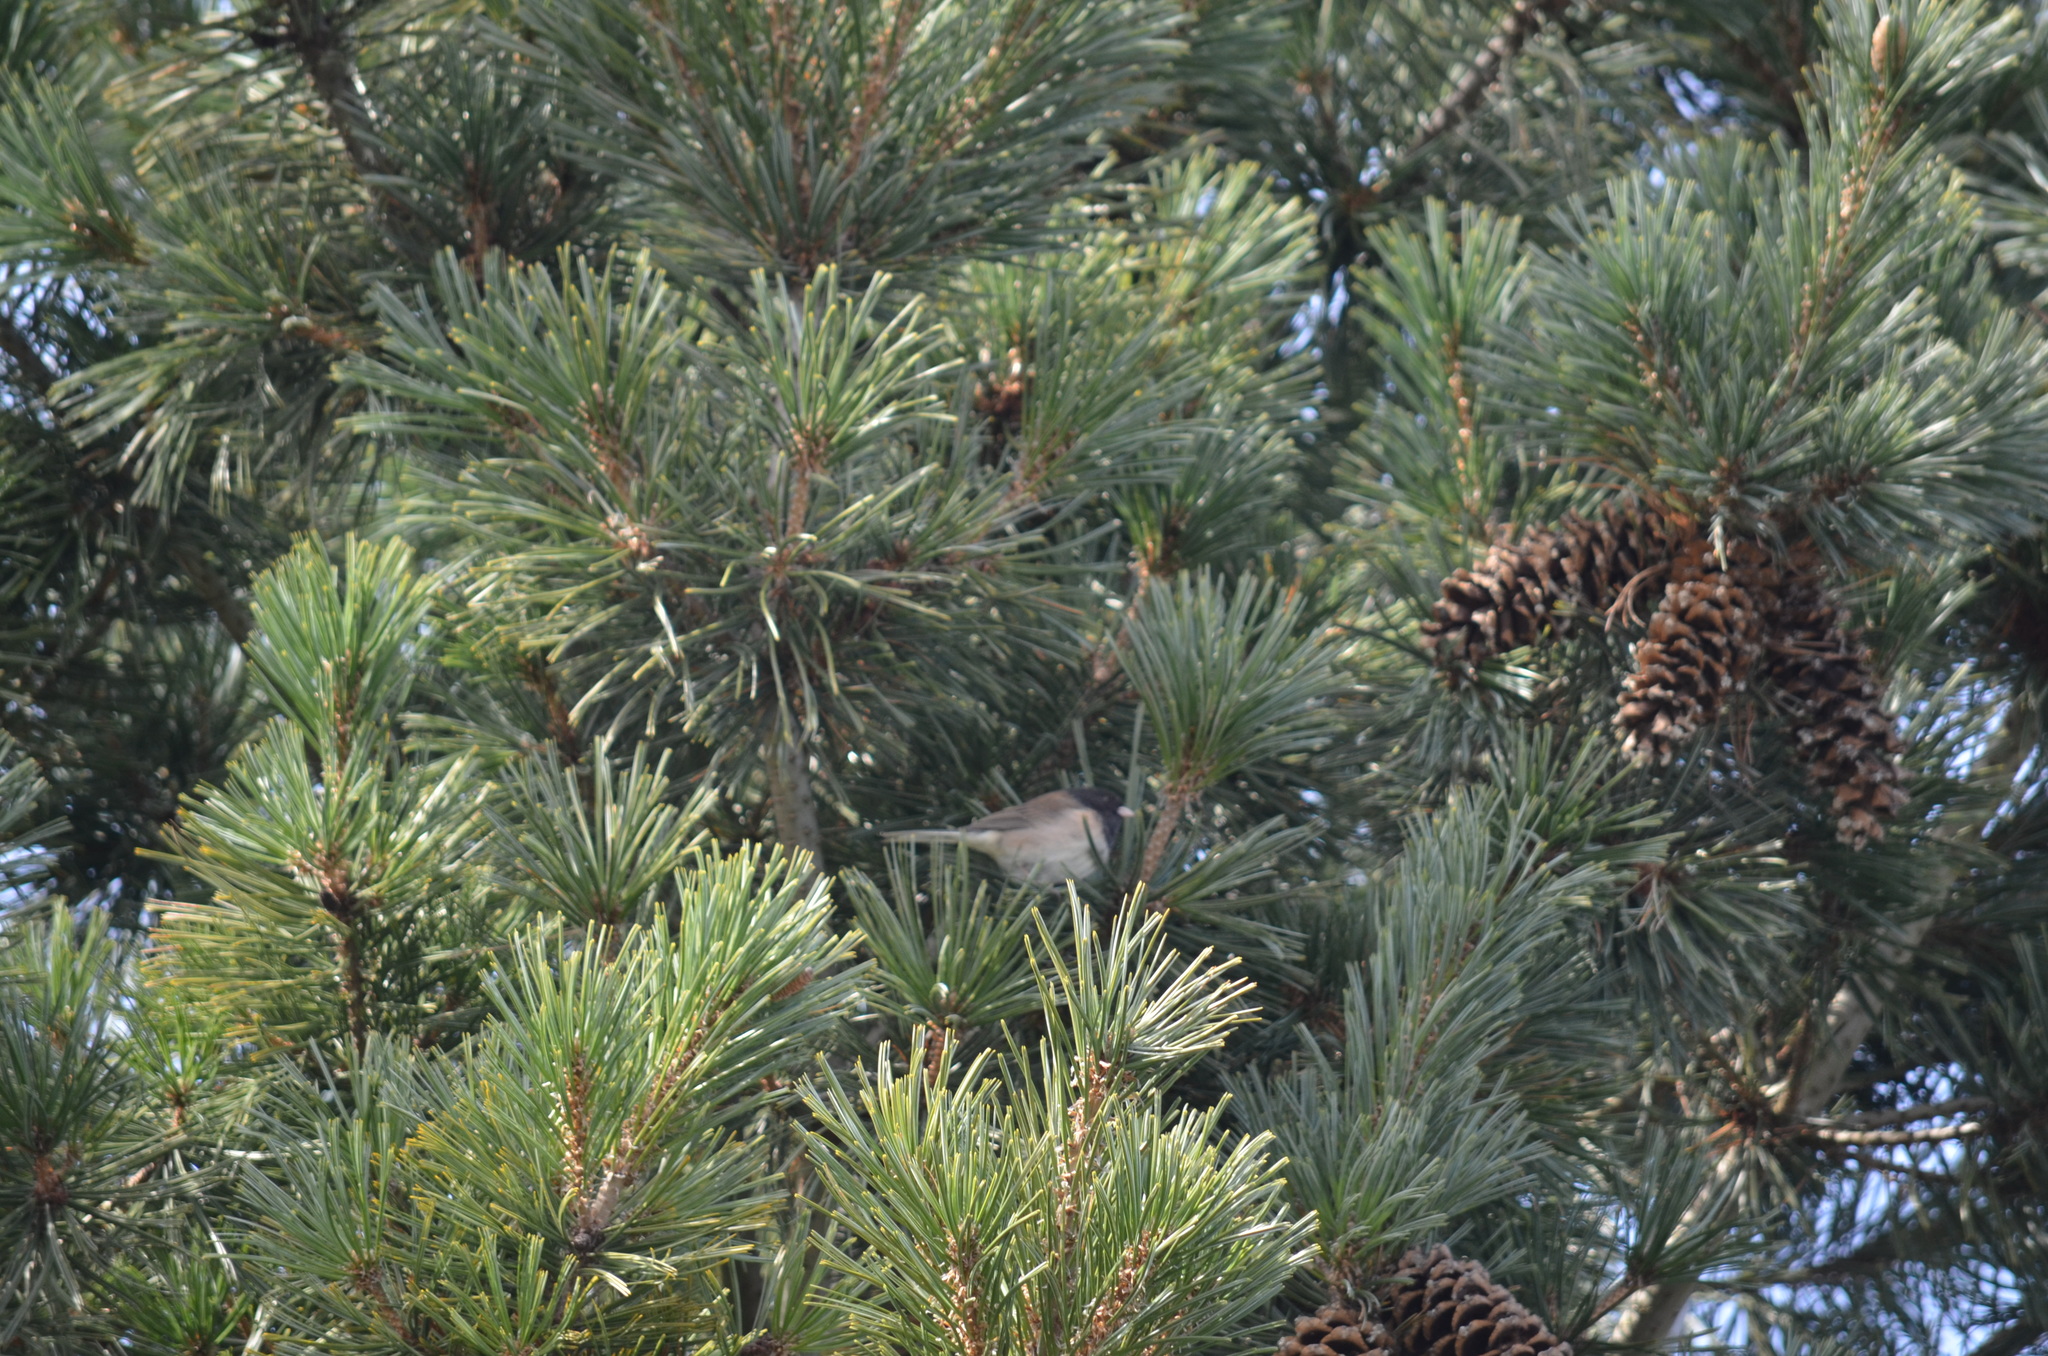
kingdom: Animalia
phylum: Chordata
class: Aves
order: Passeriformes
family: Passerellidae
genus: Junco
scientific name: Junco hyemalis
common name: Dark-eyed junco
